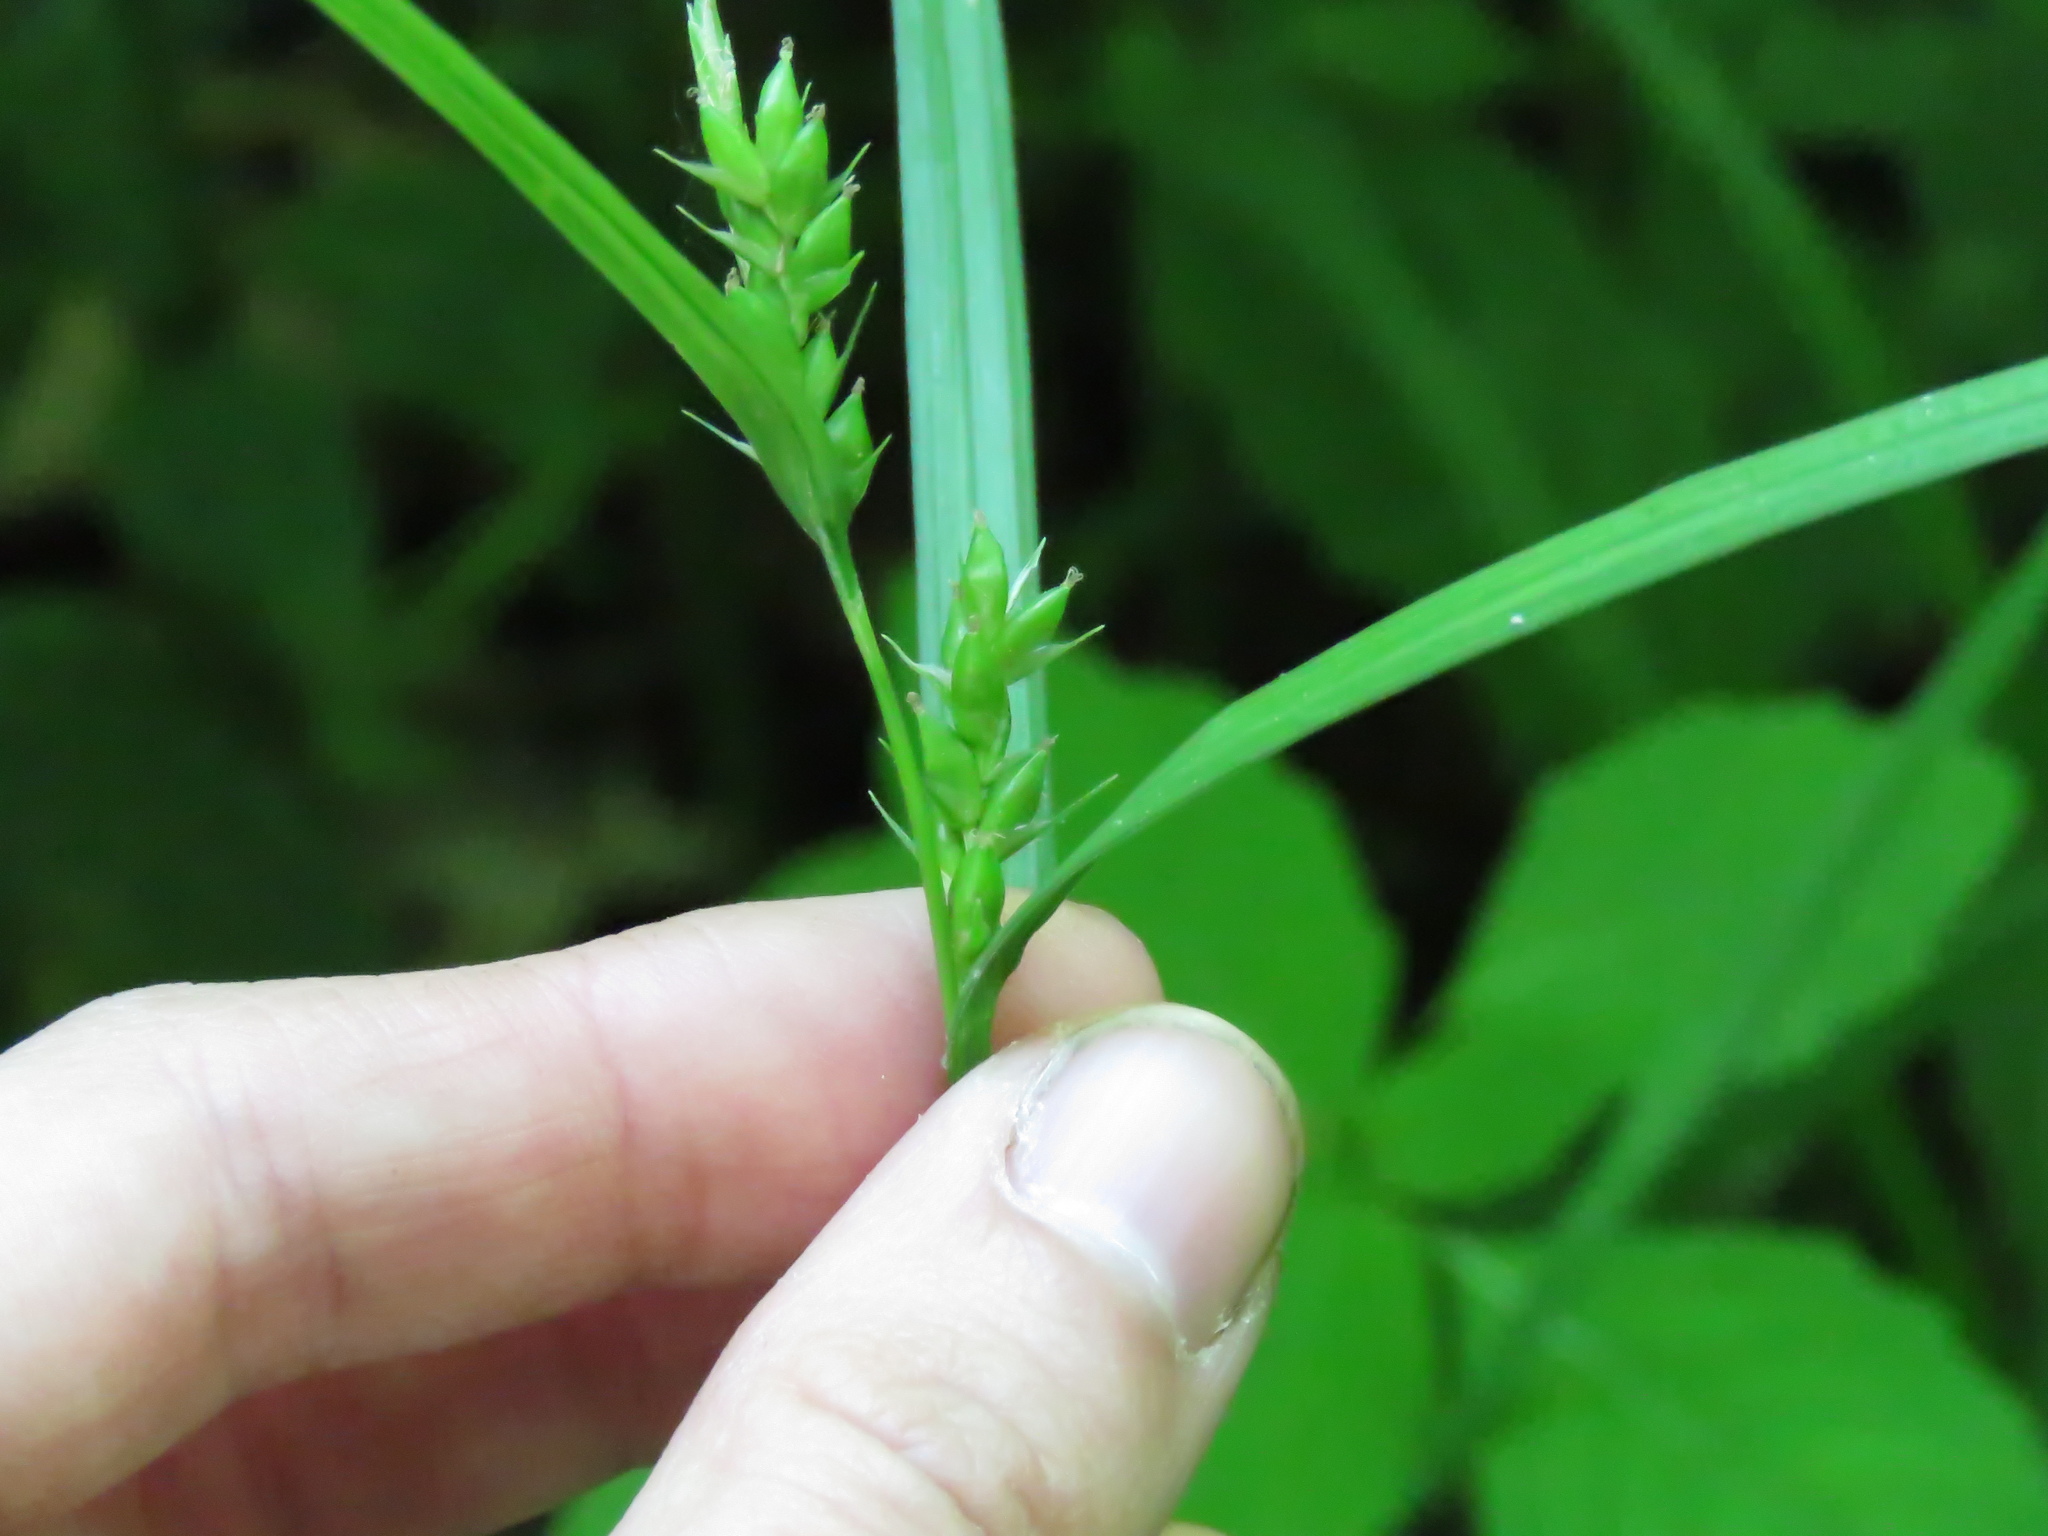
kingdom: Plantae
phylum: Tracheophyta
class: Liliopsida
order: Poales
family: Cyperaceae
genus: Carex
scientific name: Carex grisea
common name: Eastern narrow-leaved sedge
